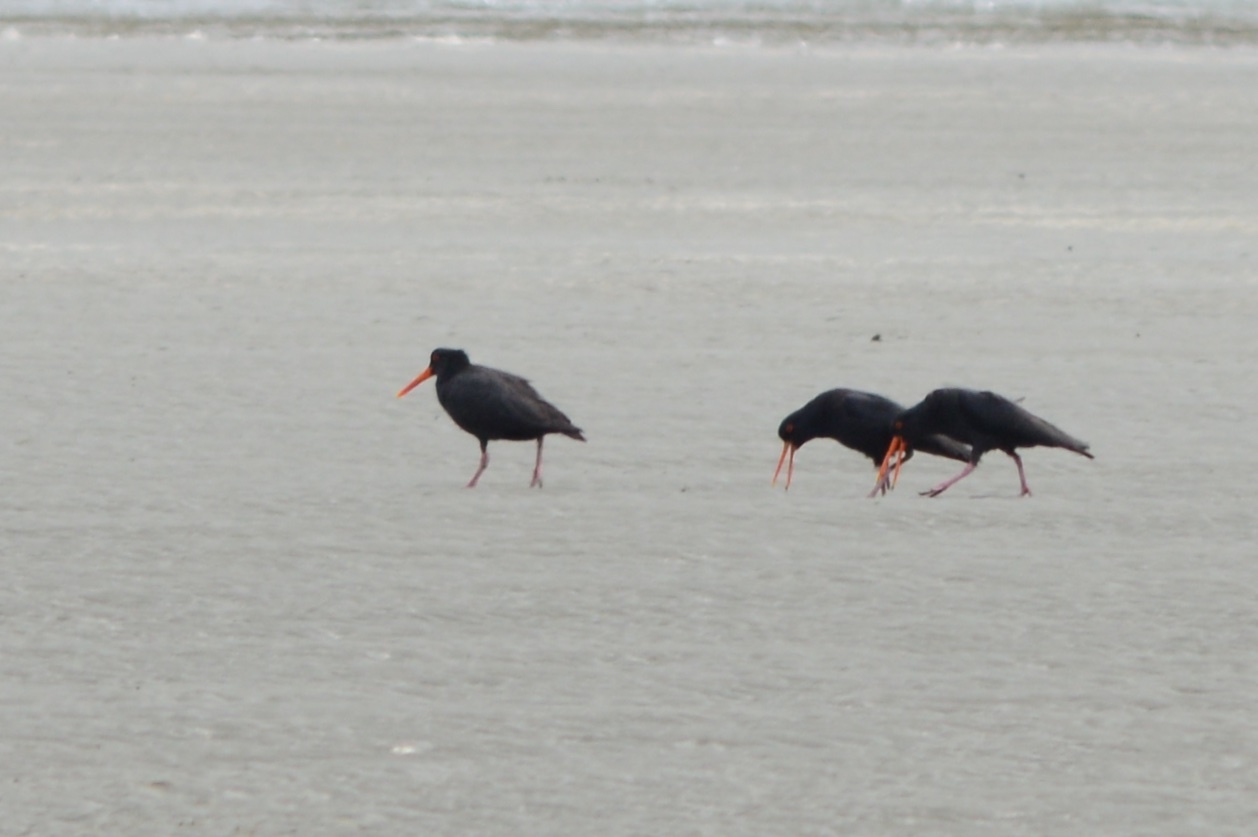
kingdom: Animalia
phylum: Chordata
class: Aves
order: Charadriiformes
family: Haematopodidae
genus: Haematopus
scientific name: Haematopus unicolor
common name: Variable oystercatcher
